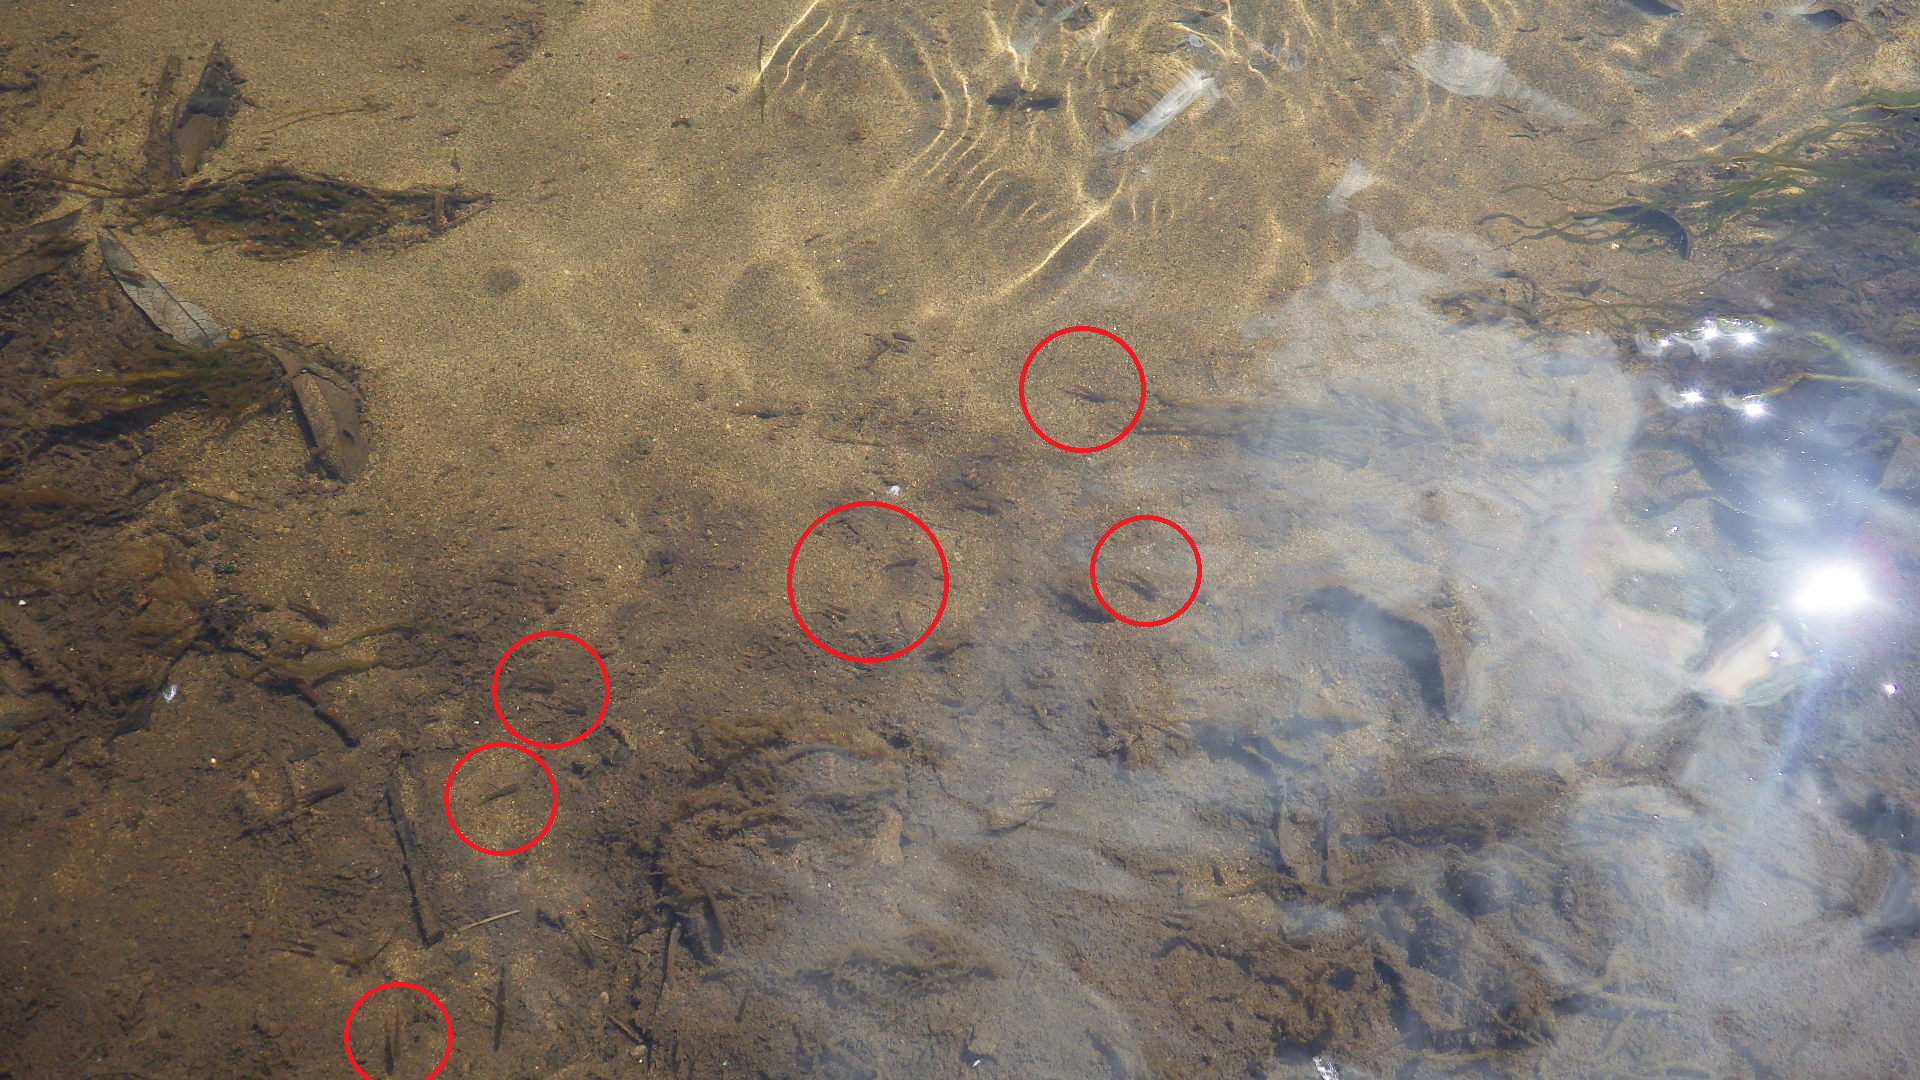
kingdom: Animalia
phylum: Chordata
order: Gasterosteiformes
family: Gasterosteidae
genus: Gasterosteus
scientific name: Gasterosteus aculeatus
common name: Three-spined stickleback
